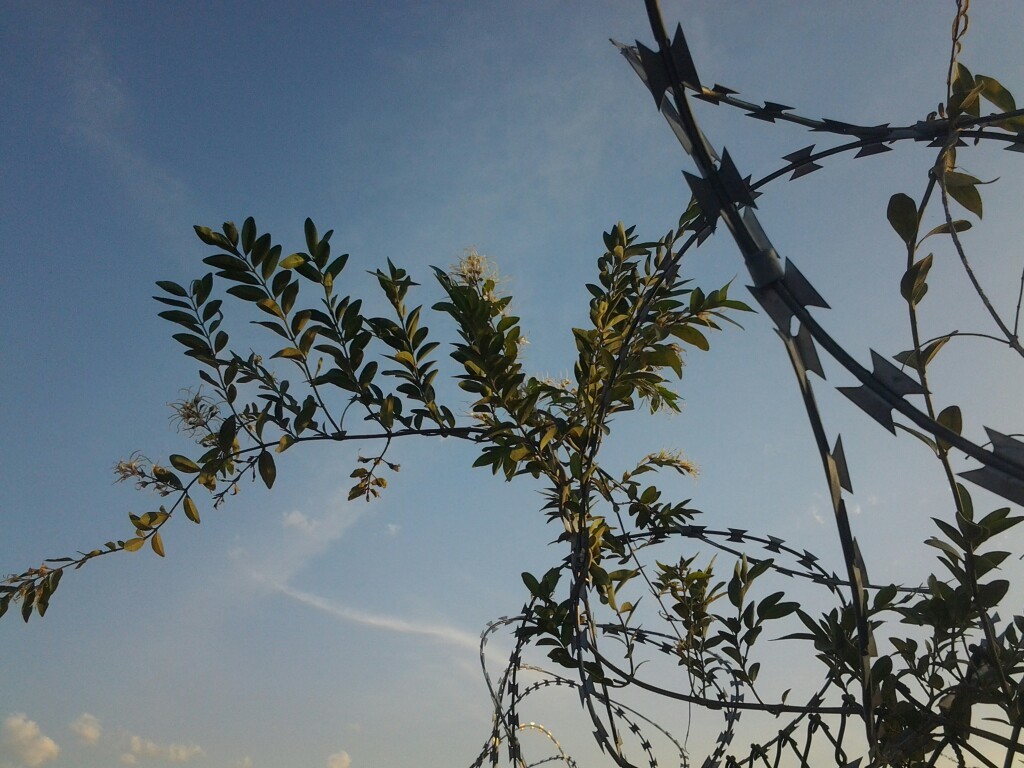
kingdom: Plantae
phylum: Tracheophyta
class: Magnoliopsida
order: Gentianales
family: Apocynaceae
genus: Baissea
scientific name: Baissea wulfhorstii
